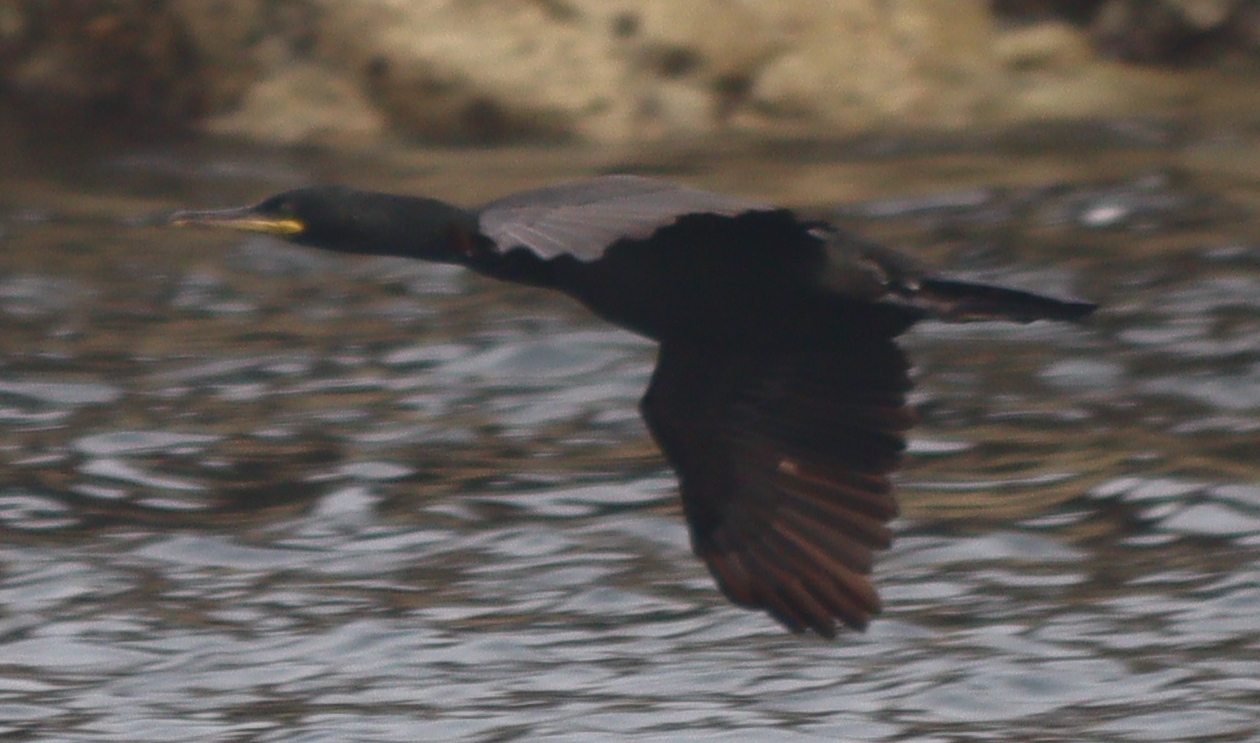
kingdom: Animalia
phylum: Chordata
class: Aves
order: Suliformes
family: Phalacrocoracidae
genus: Phalacrocorax
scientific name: Phalacrocorax aristotelis
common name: European shag
